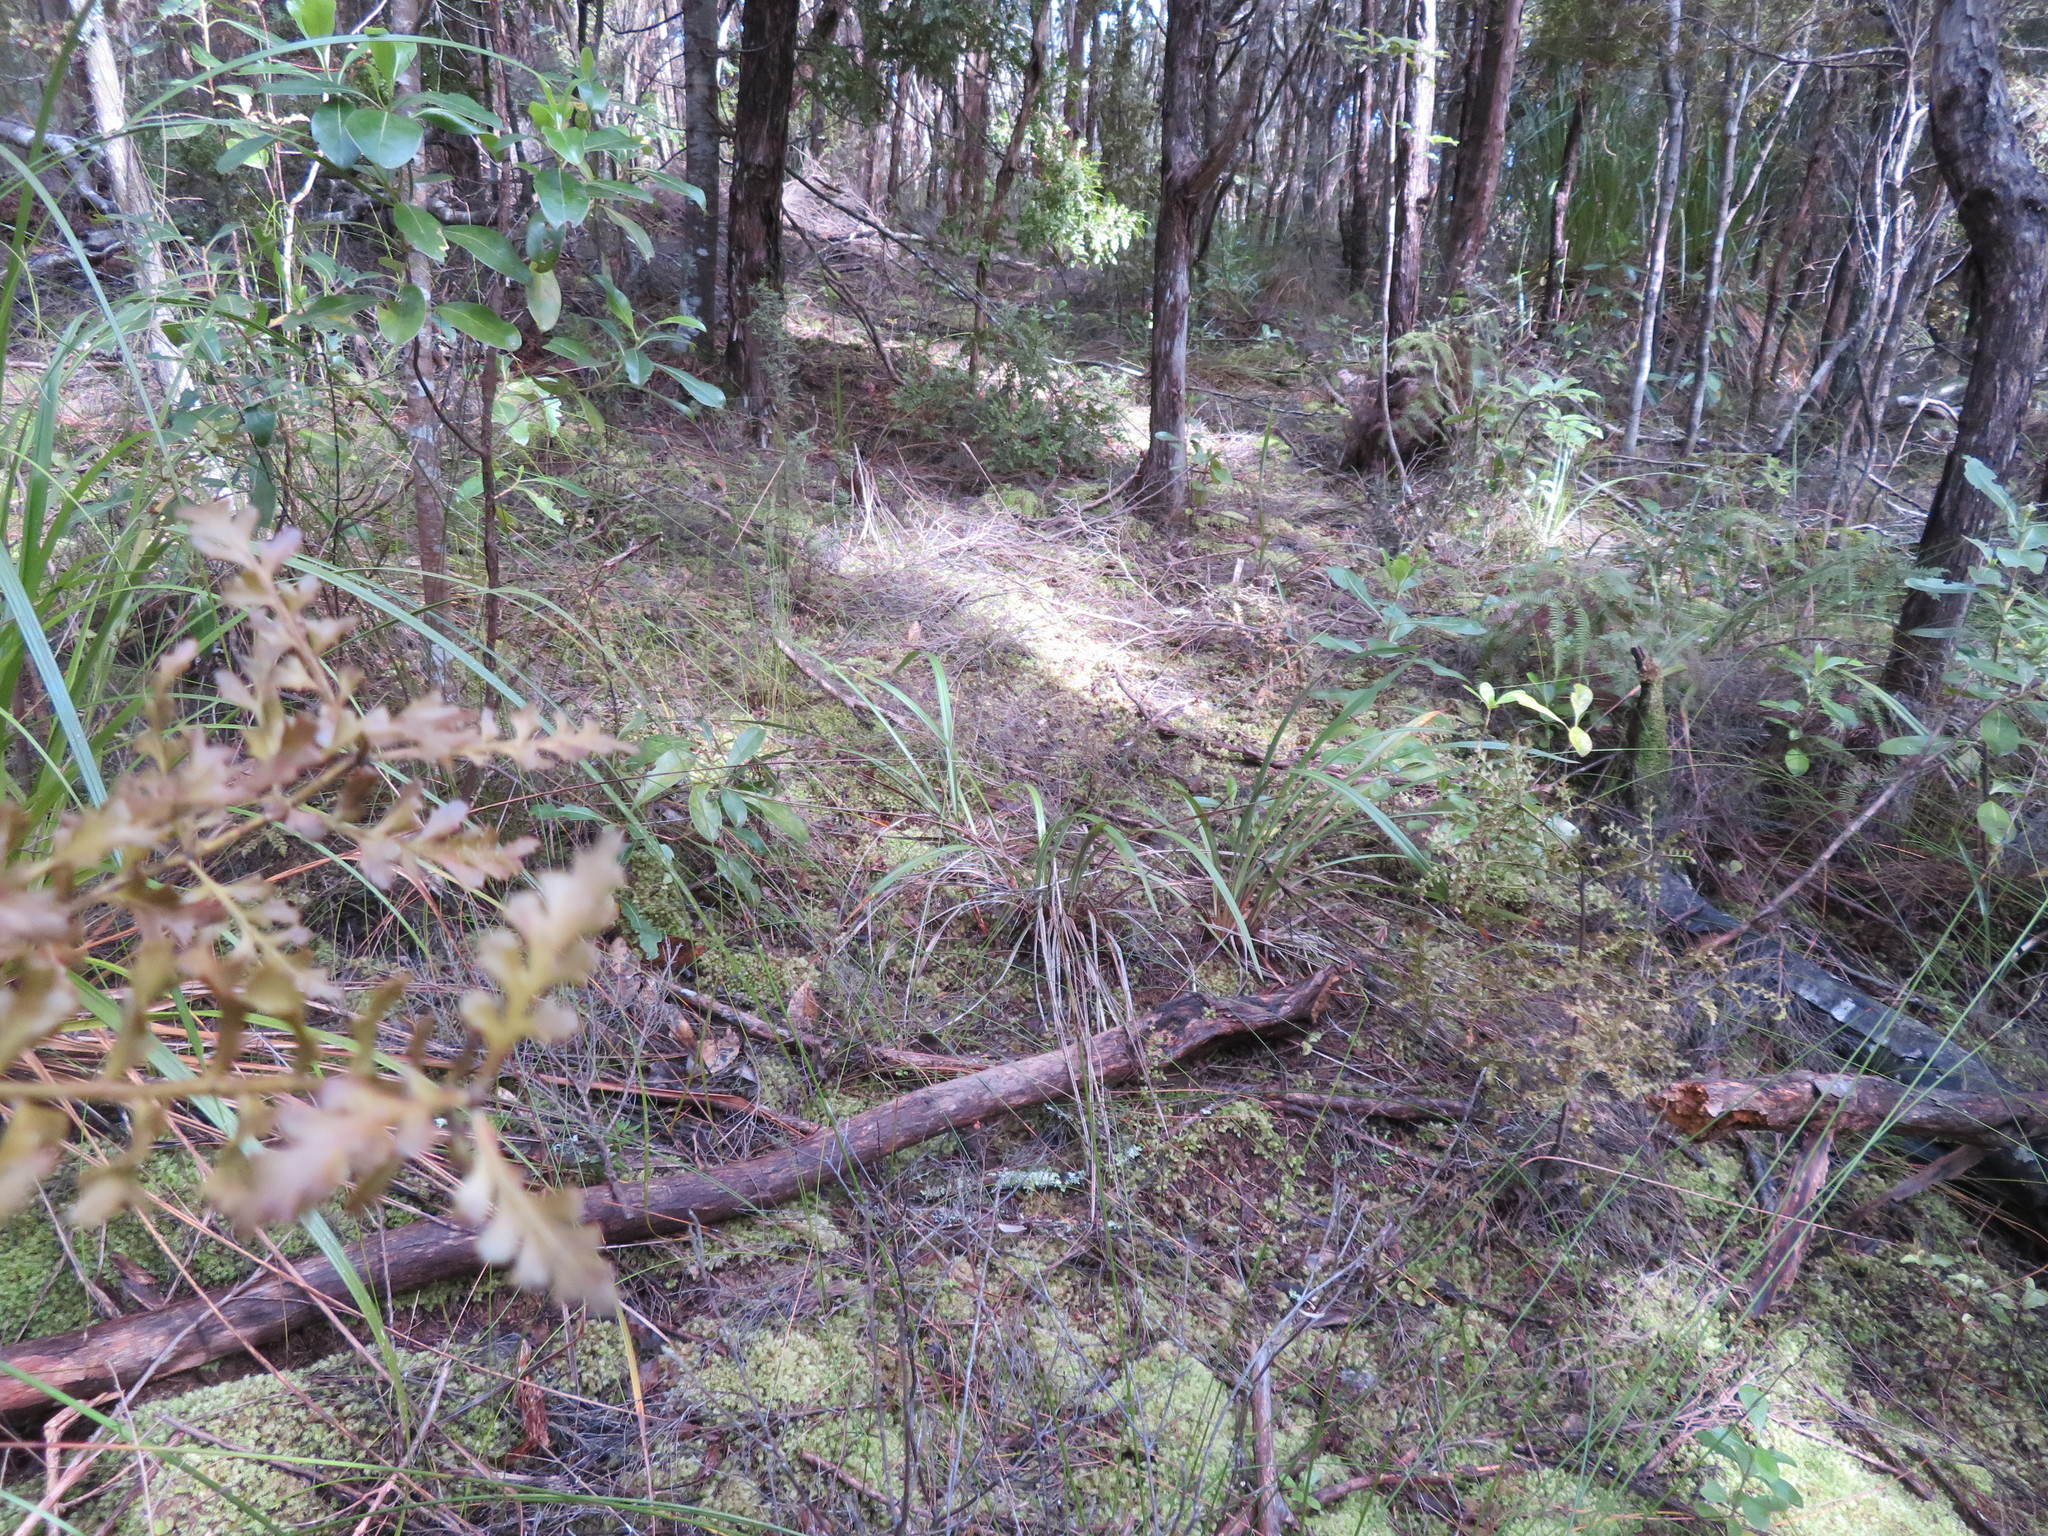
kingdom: Plantae
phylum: Tracheophyta
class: Liliopsida
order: Asparagales
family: Asphodelaceae
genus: Dianella
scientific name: Dianella nigra
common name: New zealand-blueberry
